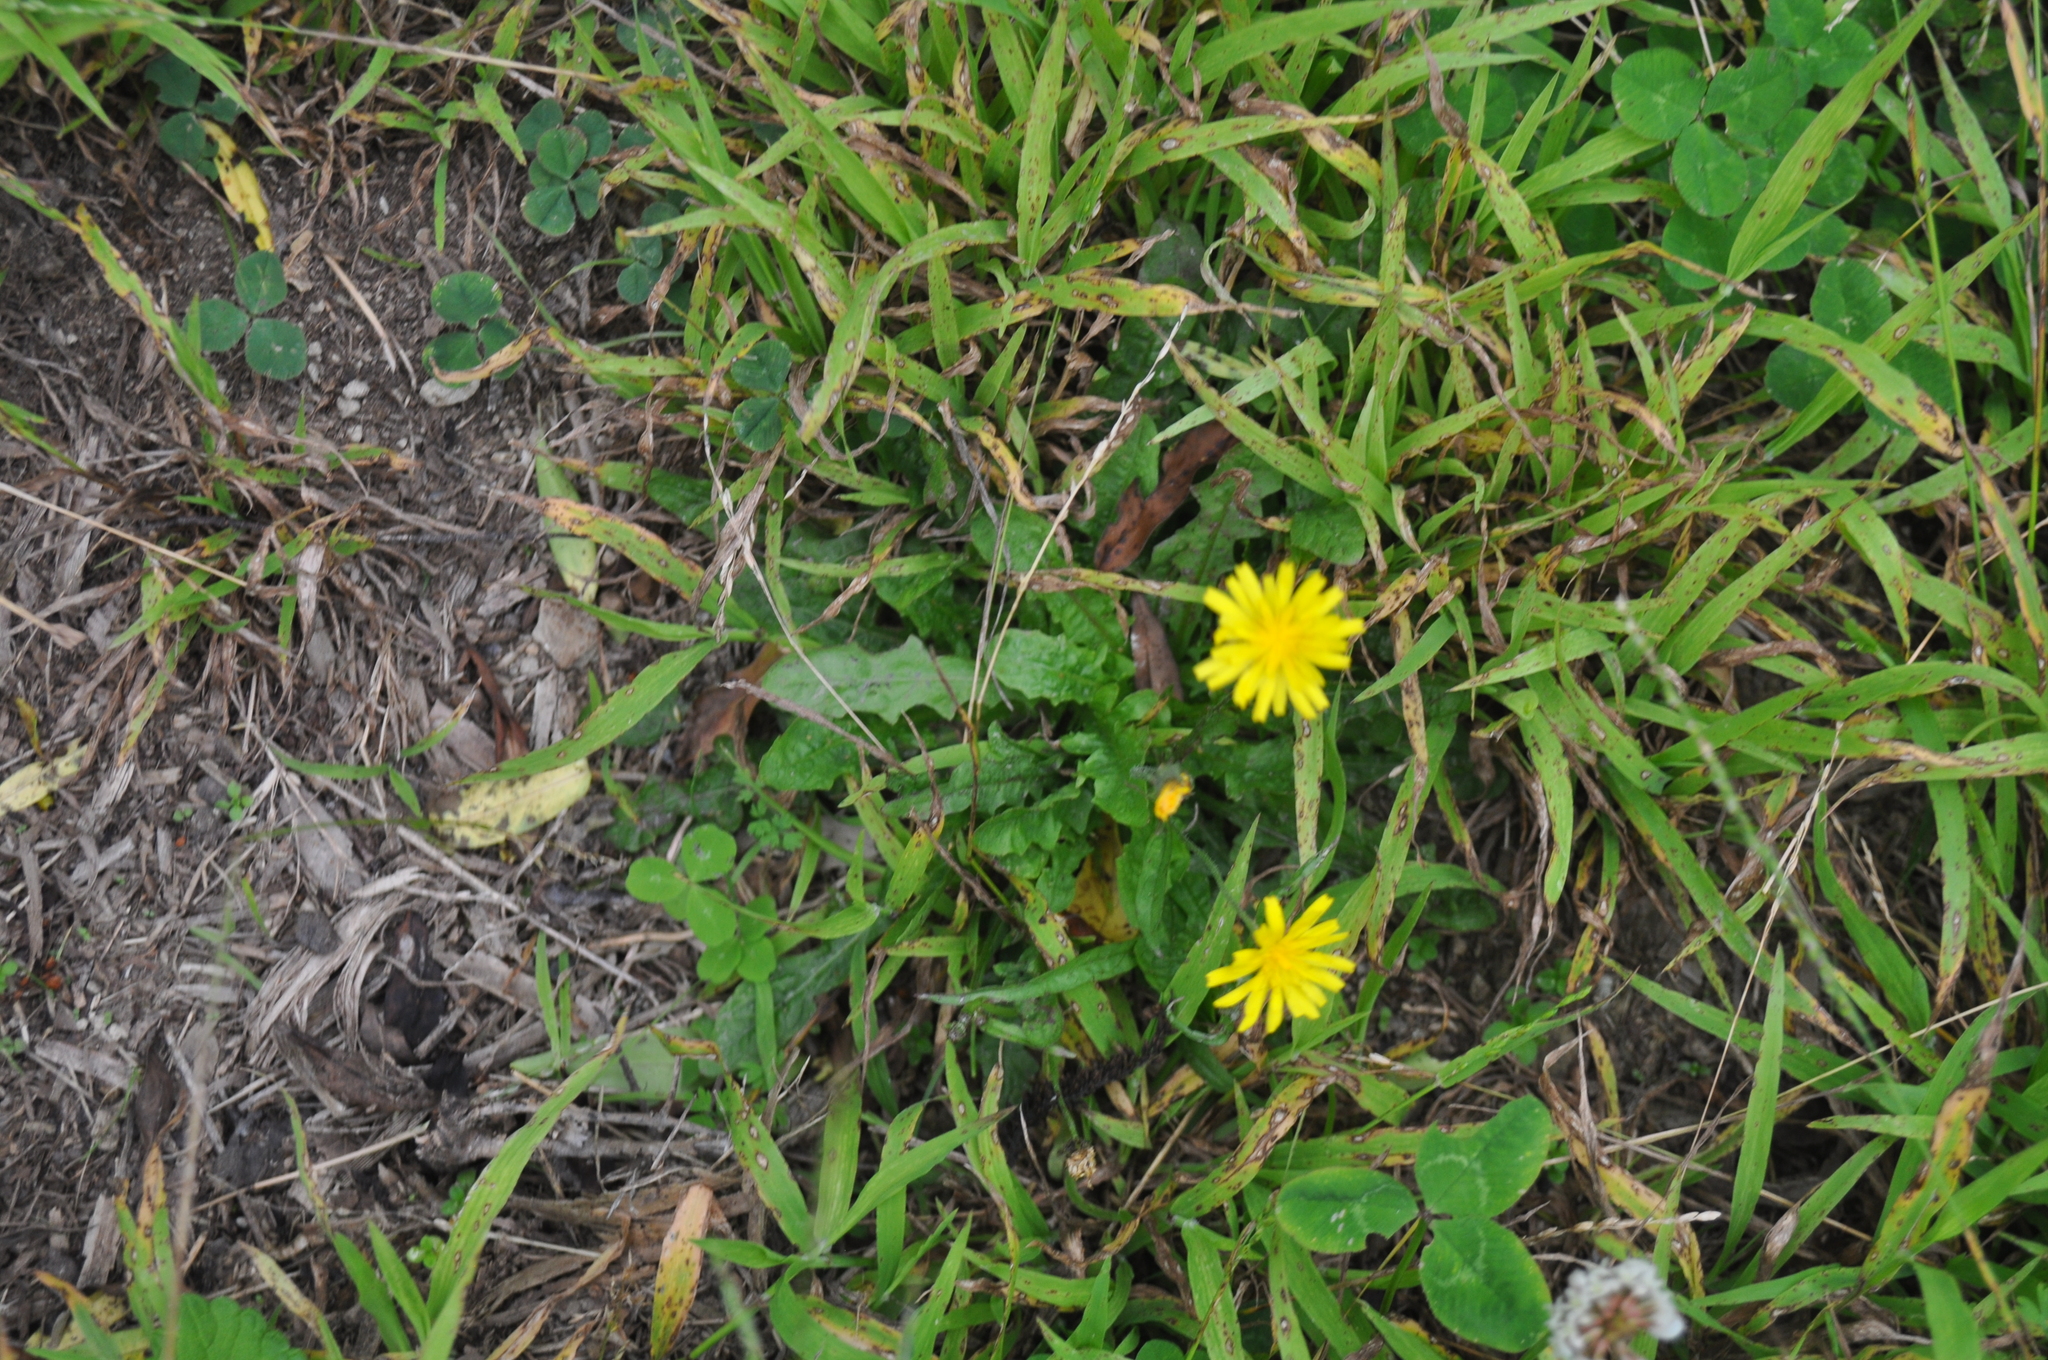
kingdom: Plantae
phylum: Tracheophyta
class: Magnoliopsida
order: Asterales
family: Asteraceae
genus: Crepis
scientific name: Crepis capillaris
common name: Smooth hawksbeard
